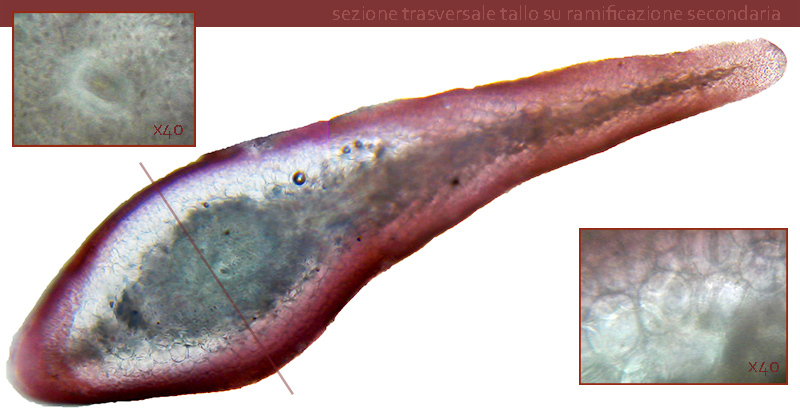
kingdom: Plantae
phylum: Rhodophyta
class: Florideophyceae
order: Gigartinales
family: Sphaerococcaceae
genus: Sphaerococcus
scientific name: Sphaerococcus coronopifolius
